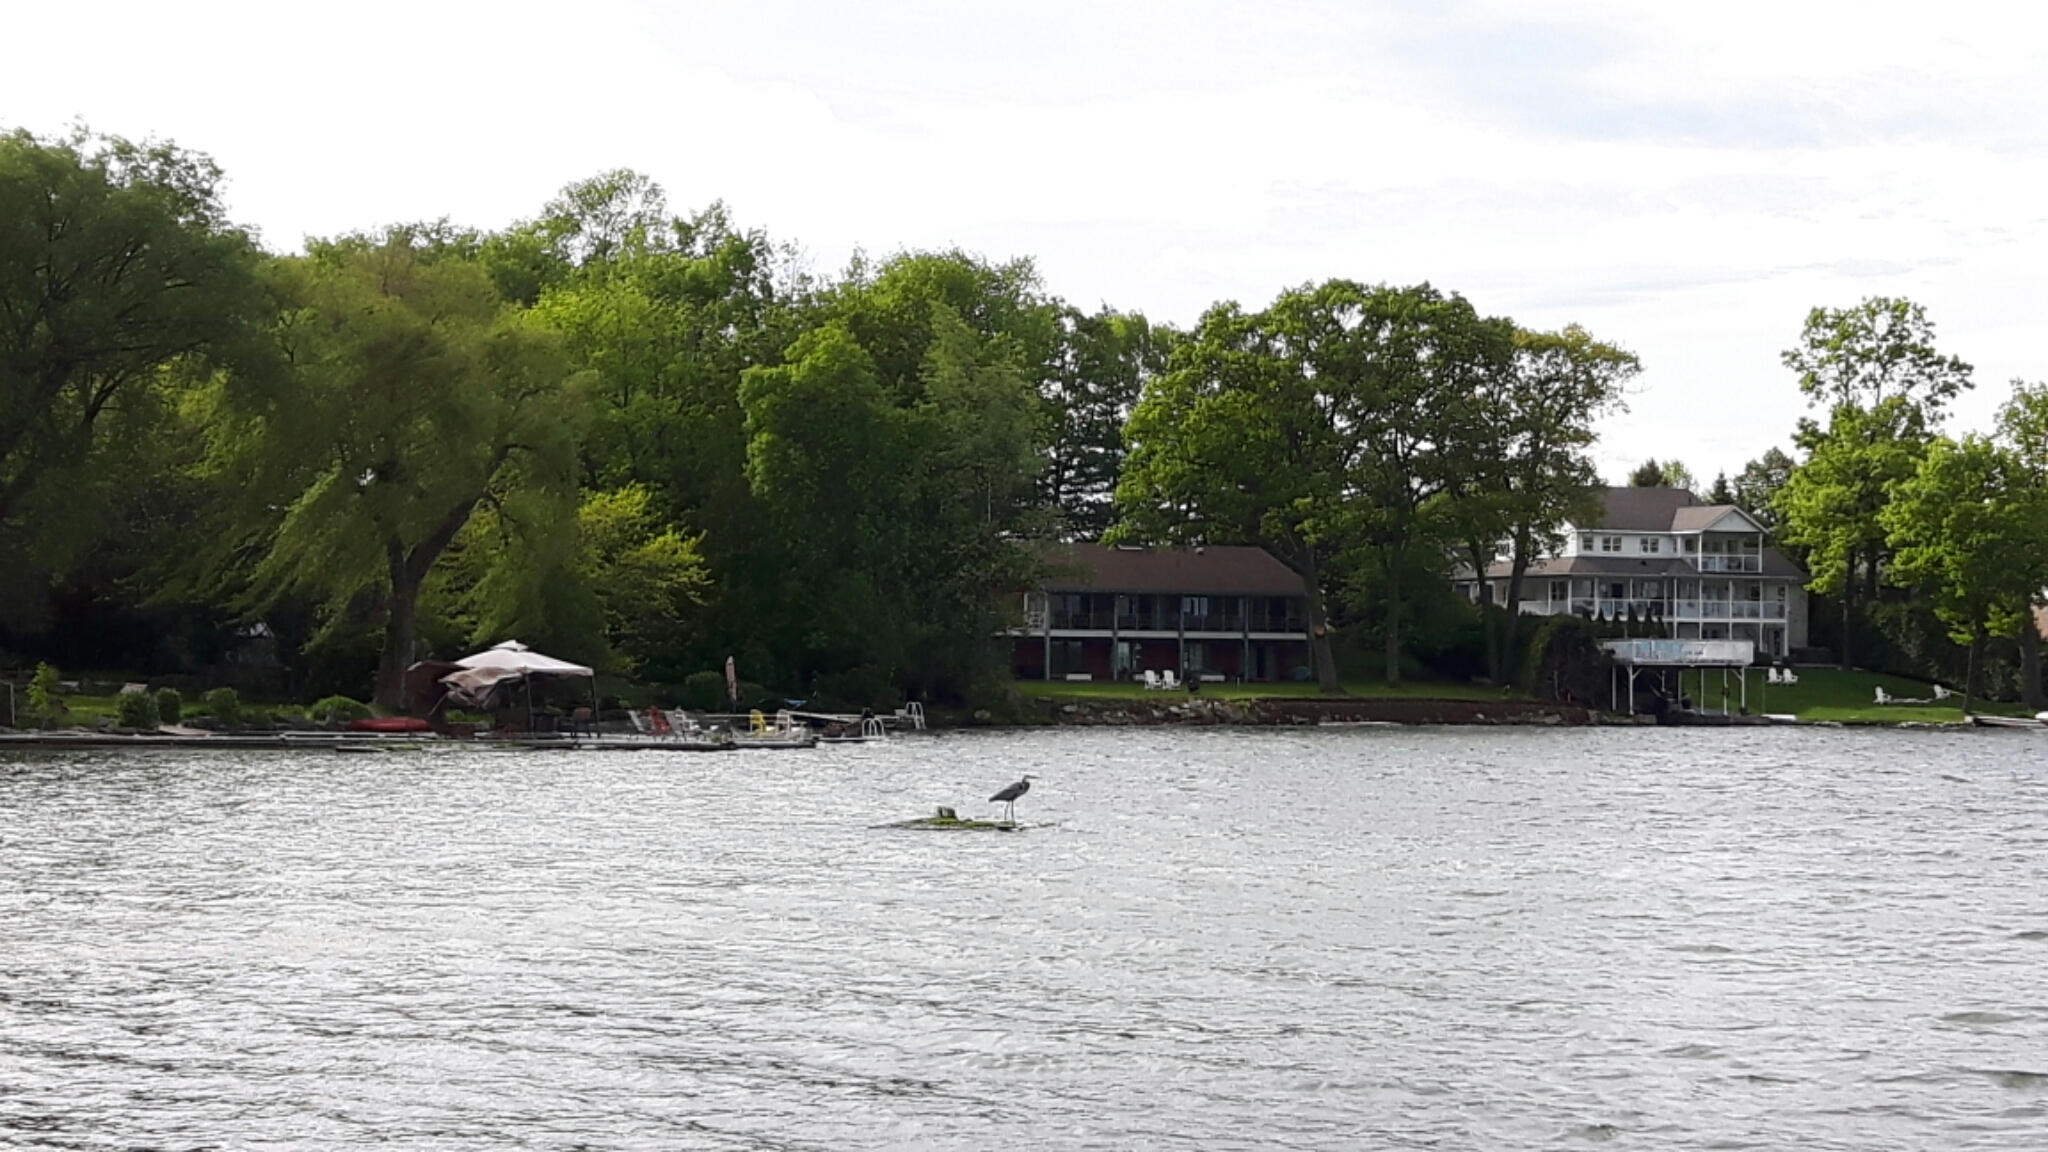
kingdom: Animalia
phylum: Chordata
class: Aves
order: Pelecaniformes
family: Ardeidae
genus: Ardea
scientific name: Ardea herodias
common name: Great blue heron
